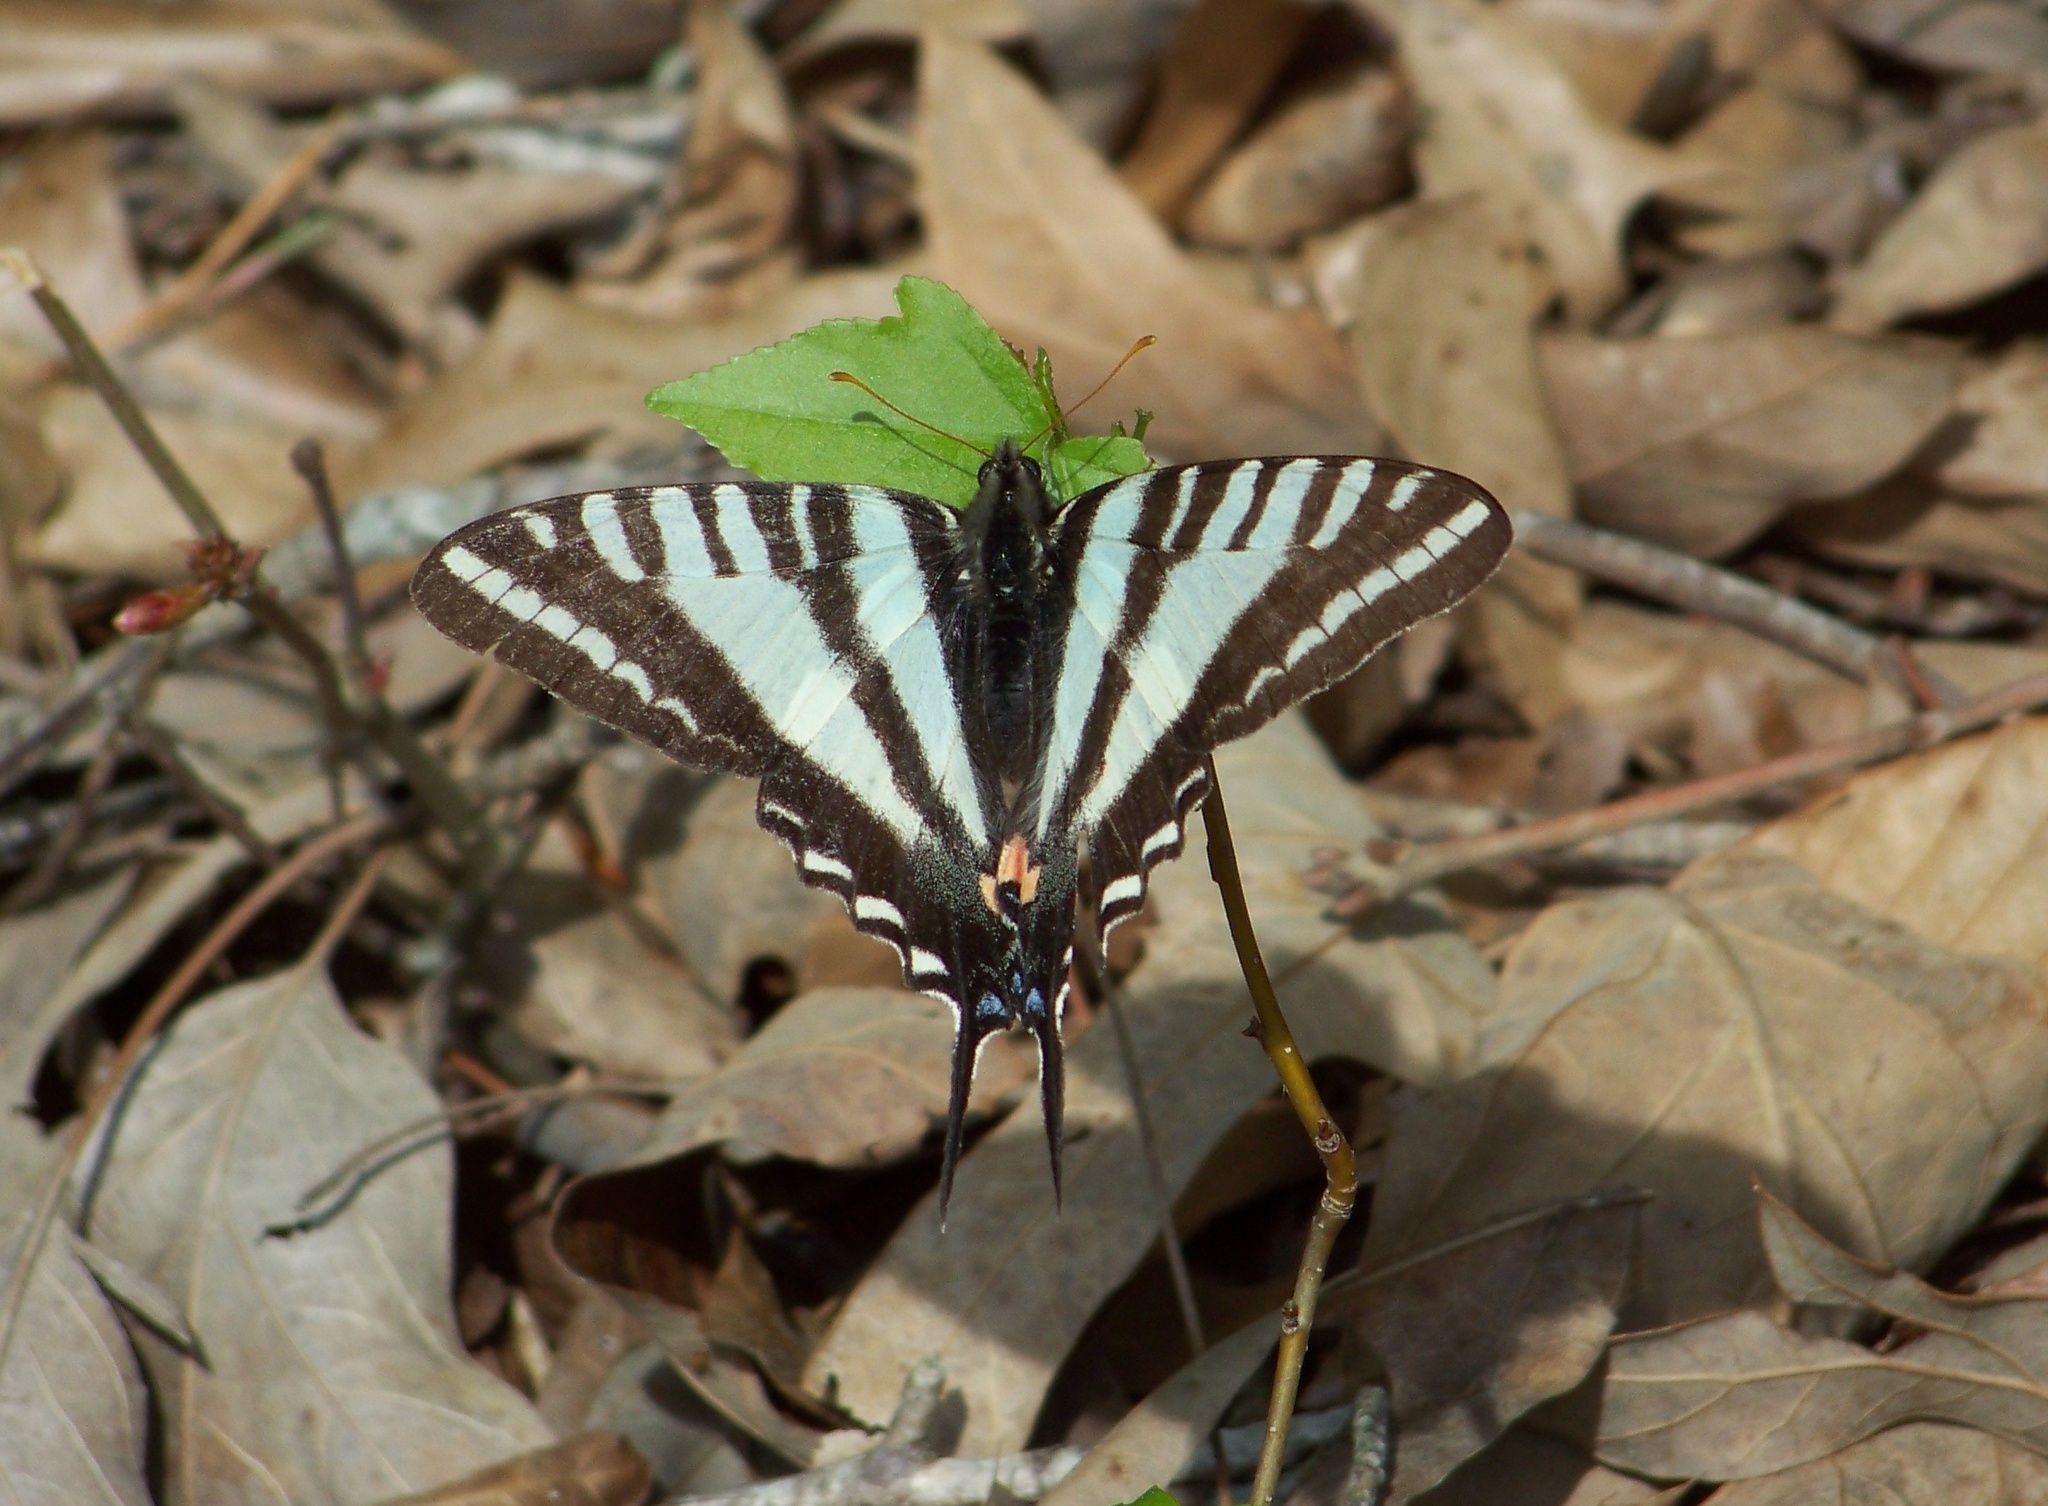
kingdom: Animalia
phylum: Arthropoda
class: Insecta
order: Lepidoptera
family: Papilionidae
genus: Protographium
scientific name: Protographium marcellus
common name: Zebra swallowtail
